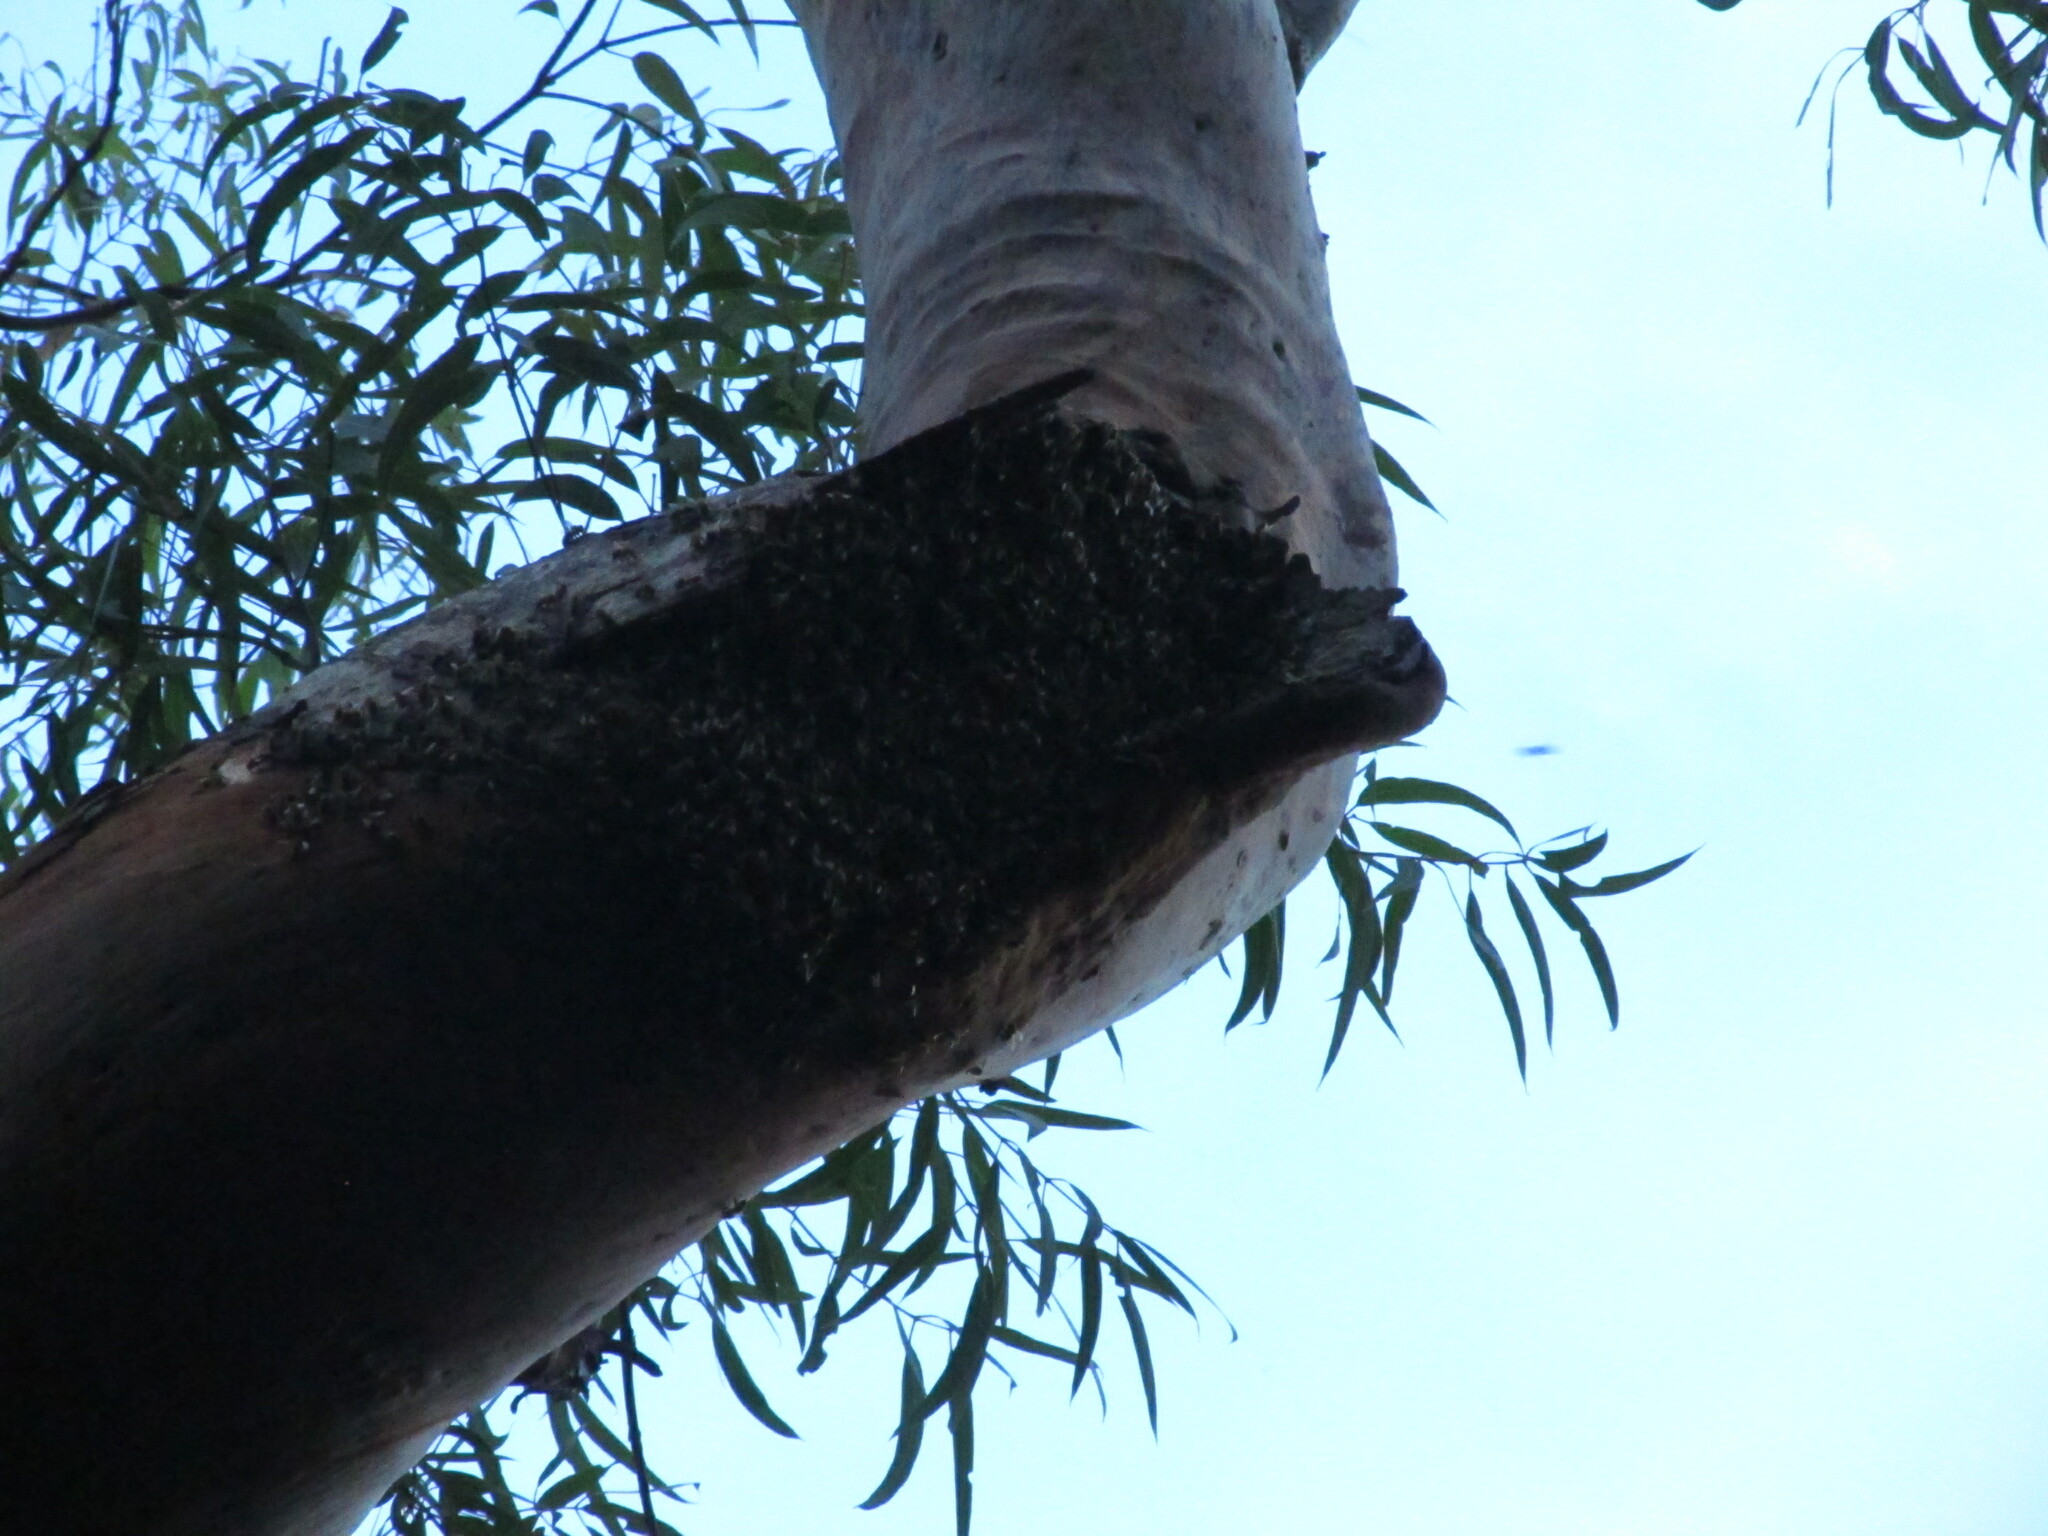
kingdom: Animalia
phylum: Arthropoda
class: Insecta
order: Hymenoptera
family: Apidae
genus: Apis
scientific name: Apis mellifera
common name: Honey bee
